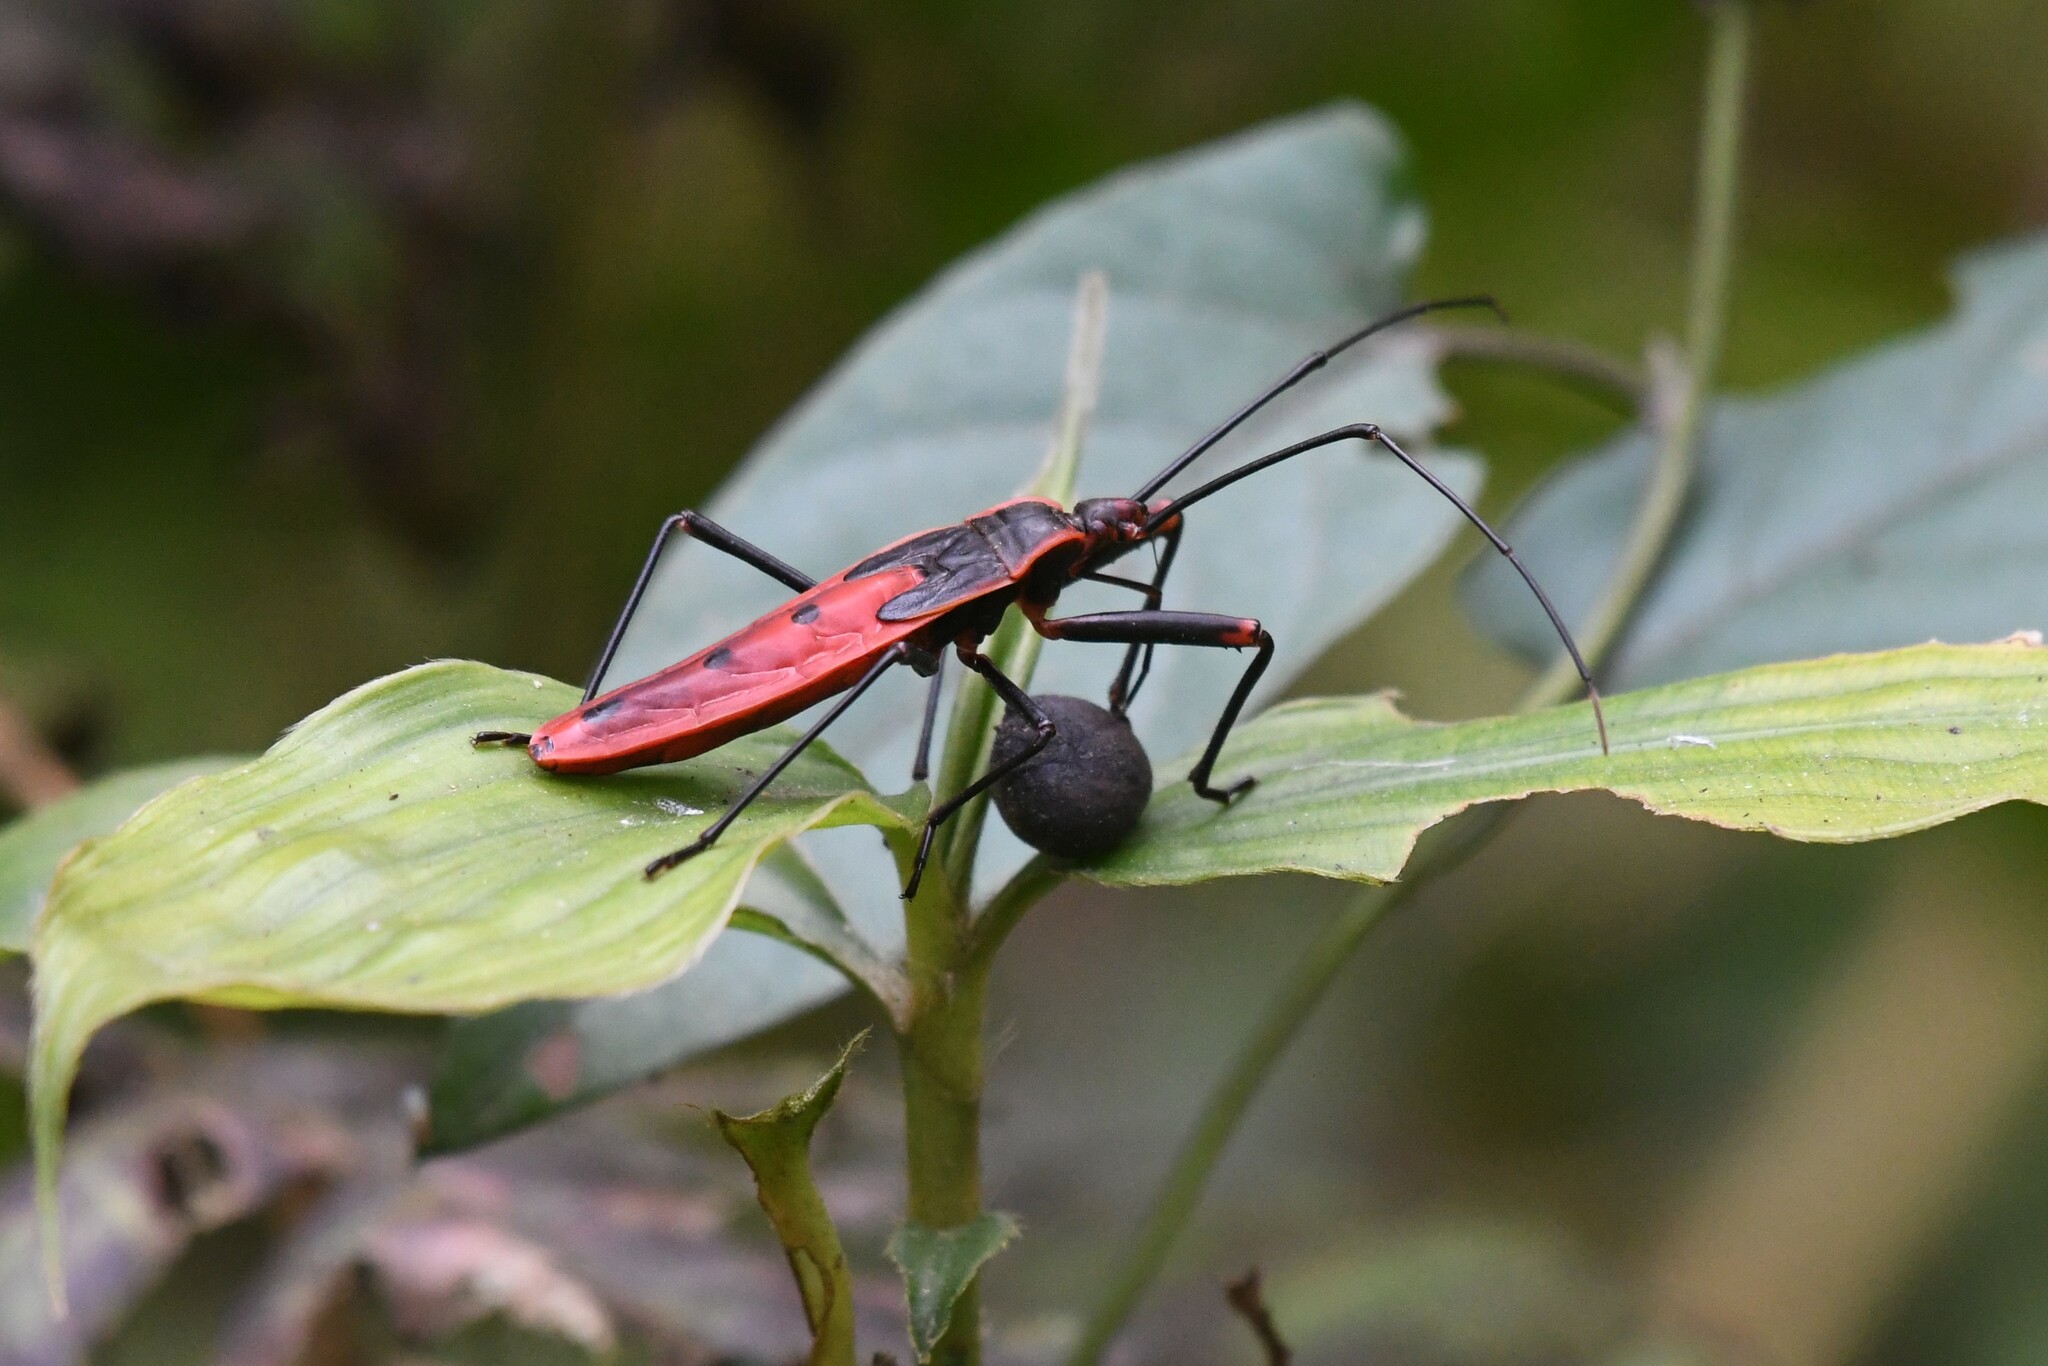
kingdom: Animalia
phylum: Arthropoda
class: Insecta
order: Hemiptera
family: Largidae
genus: Macrocheraia
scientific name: Macrocheraia grandis
